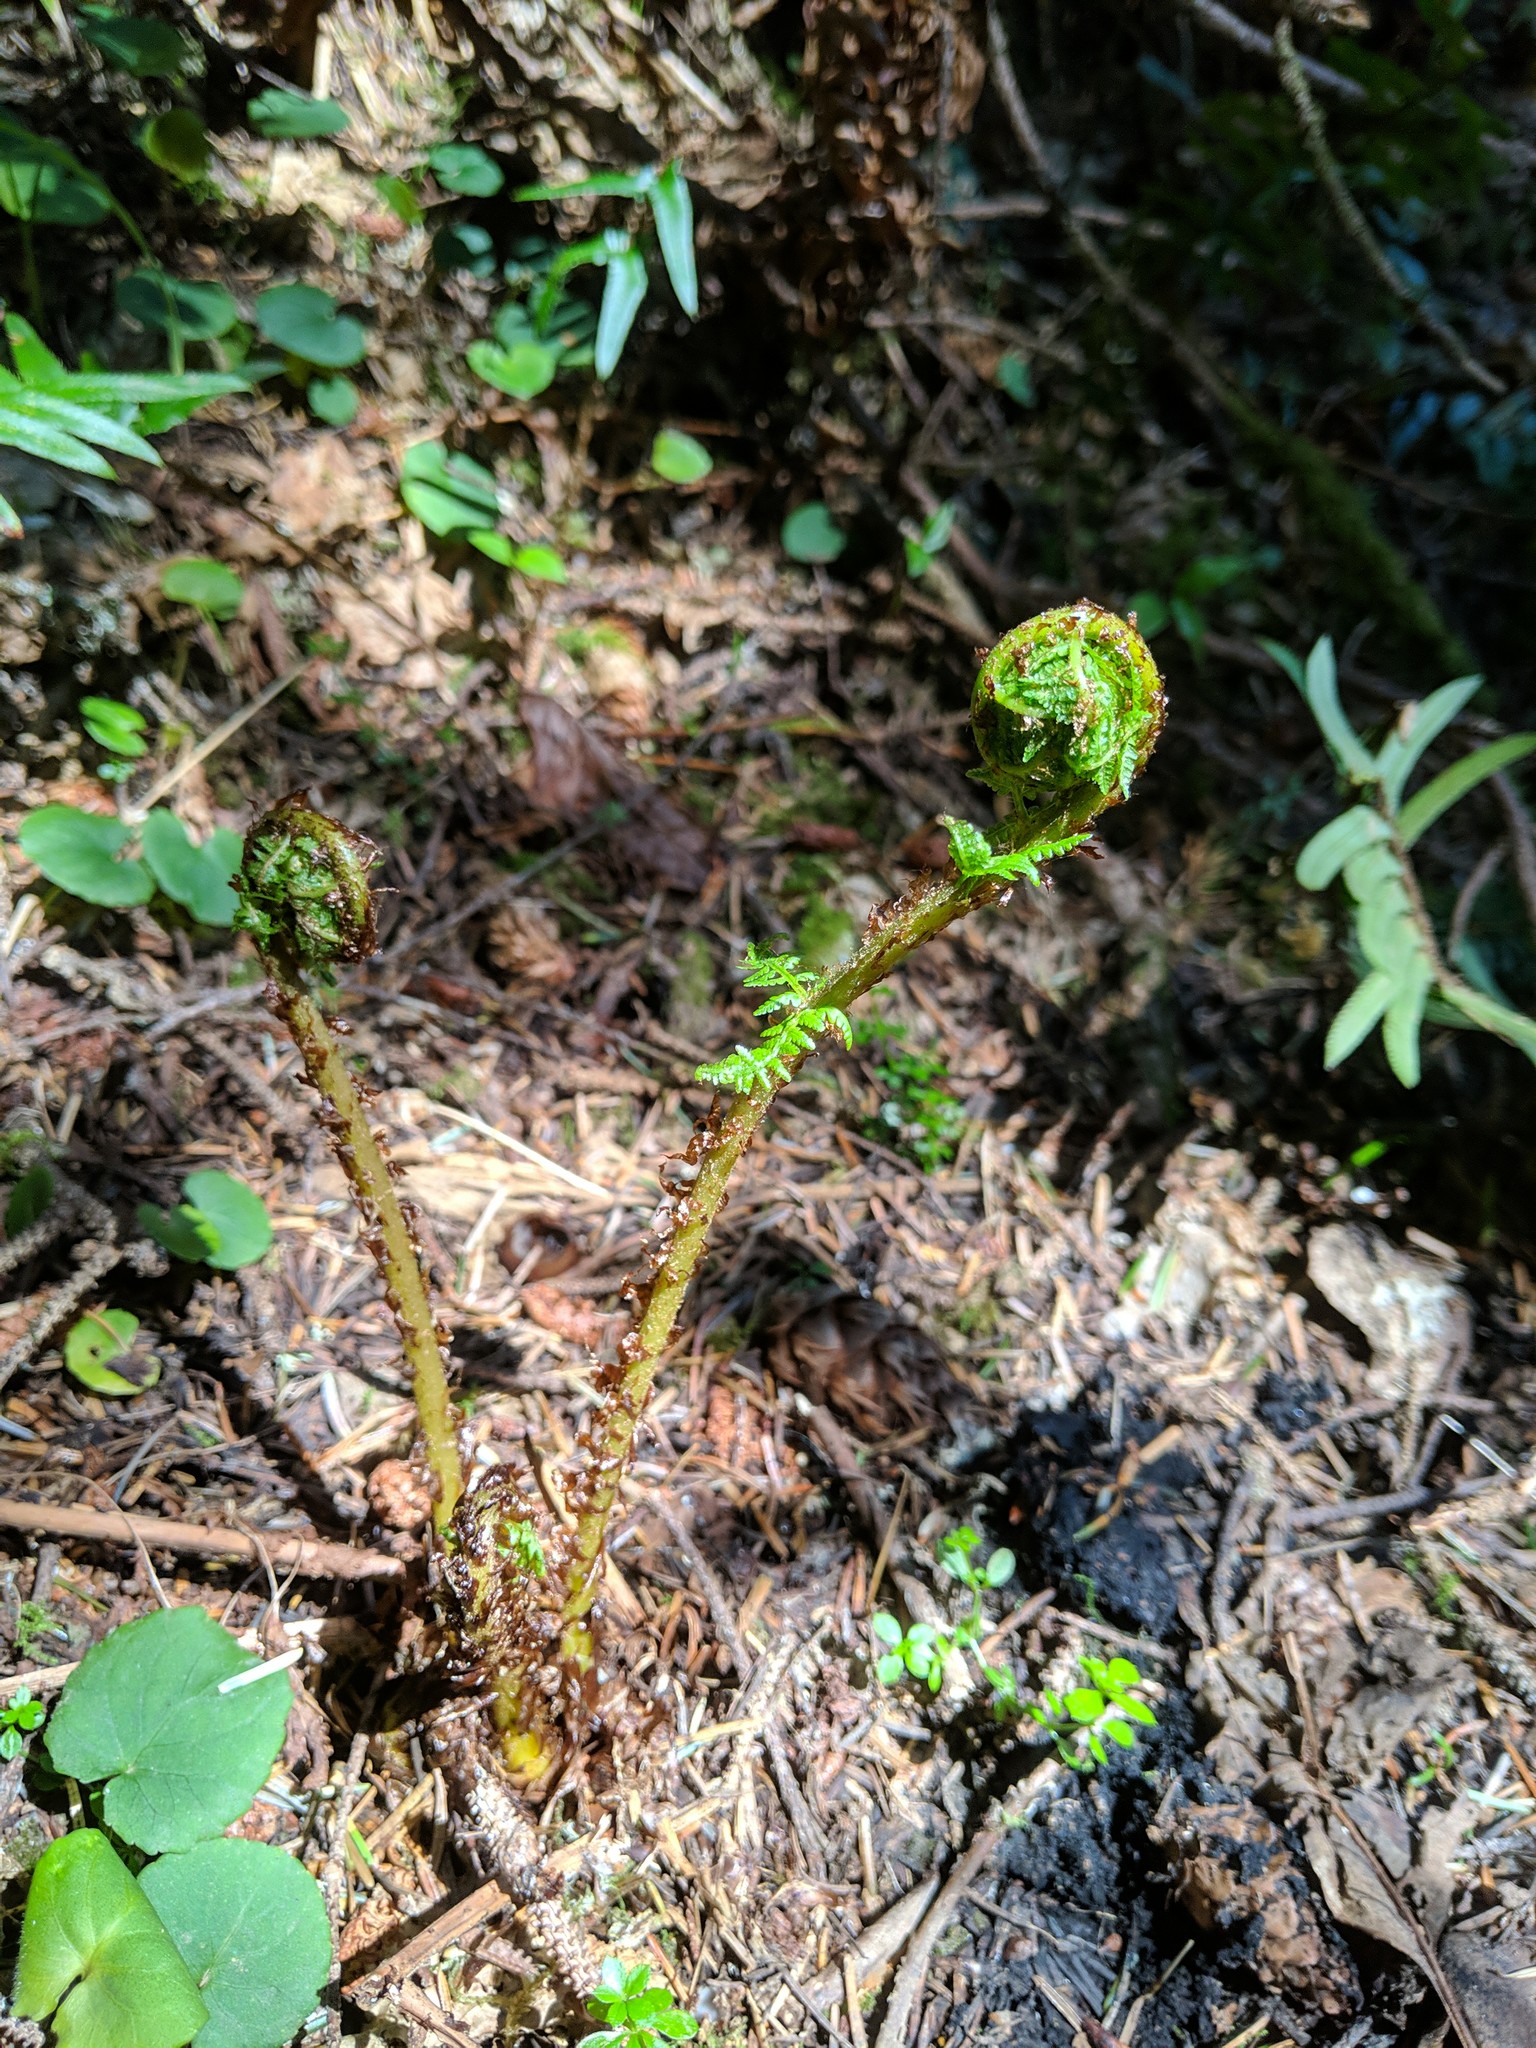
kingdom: Plantae
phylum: Tracheophyta
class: Polypodiopsida
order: Polypodiales
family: Athyriaceae
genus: Athyrium
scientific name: Athyrium cyclosorum
